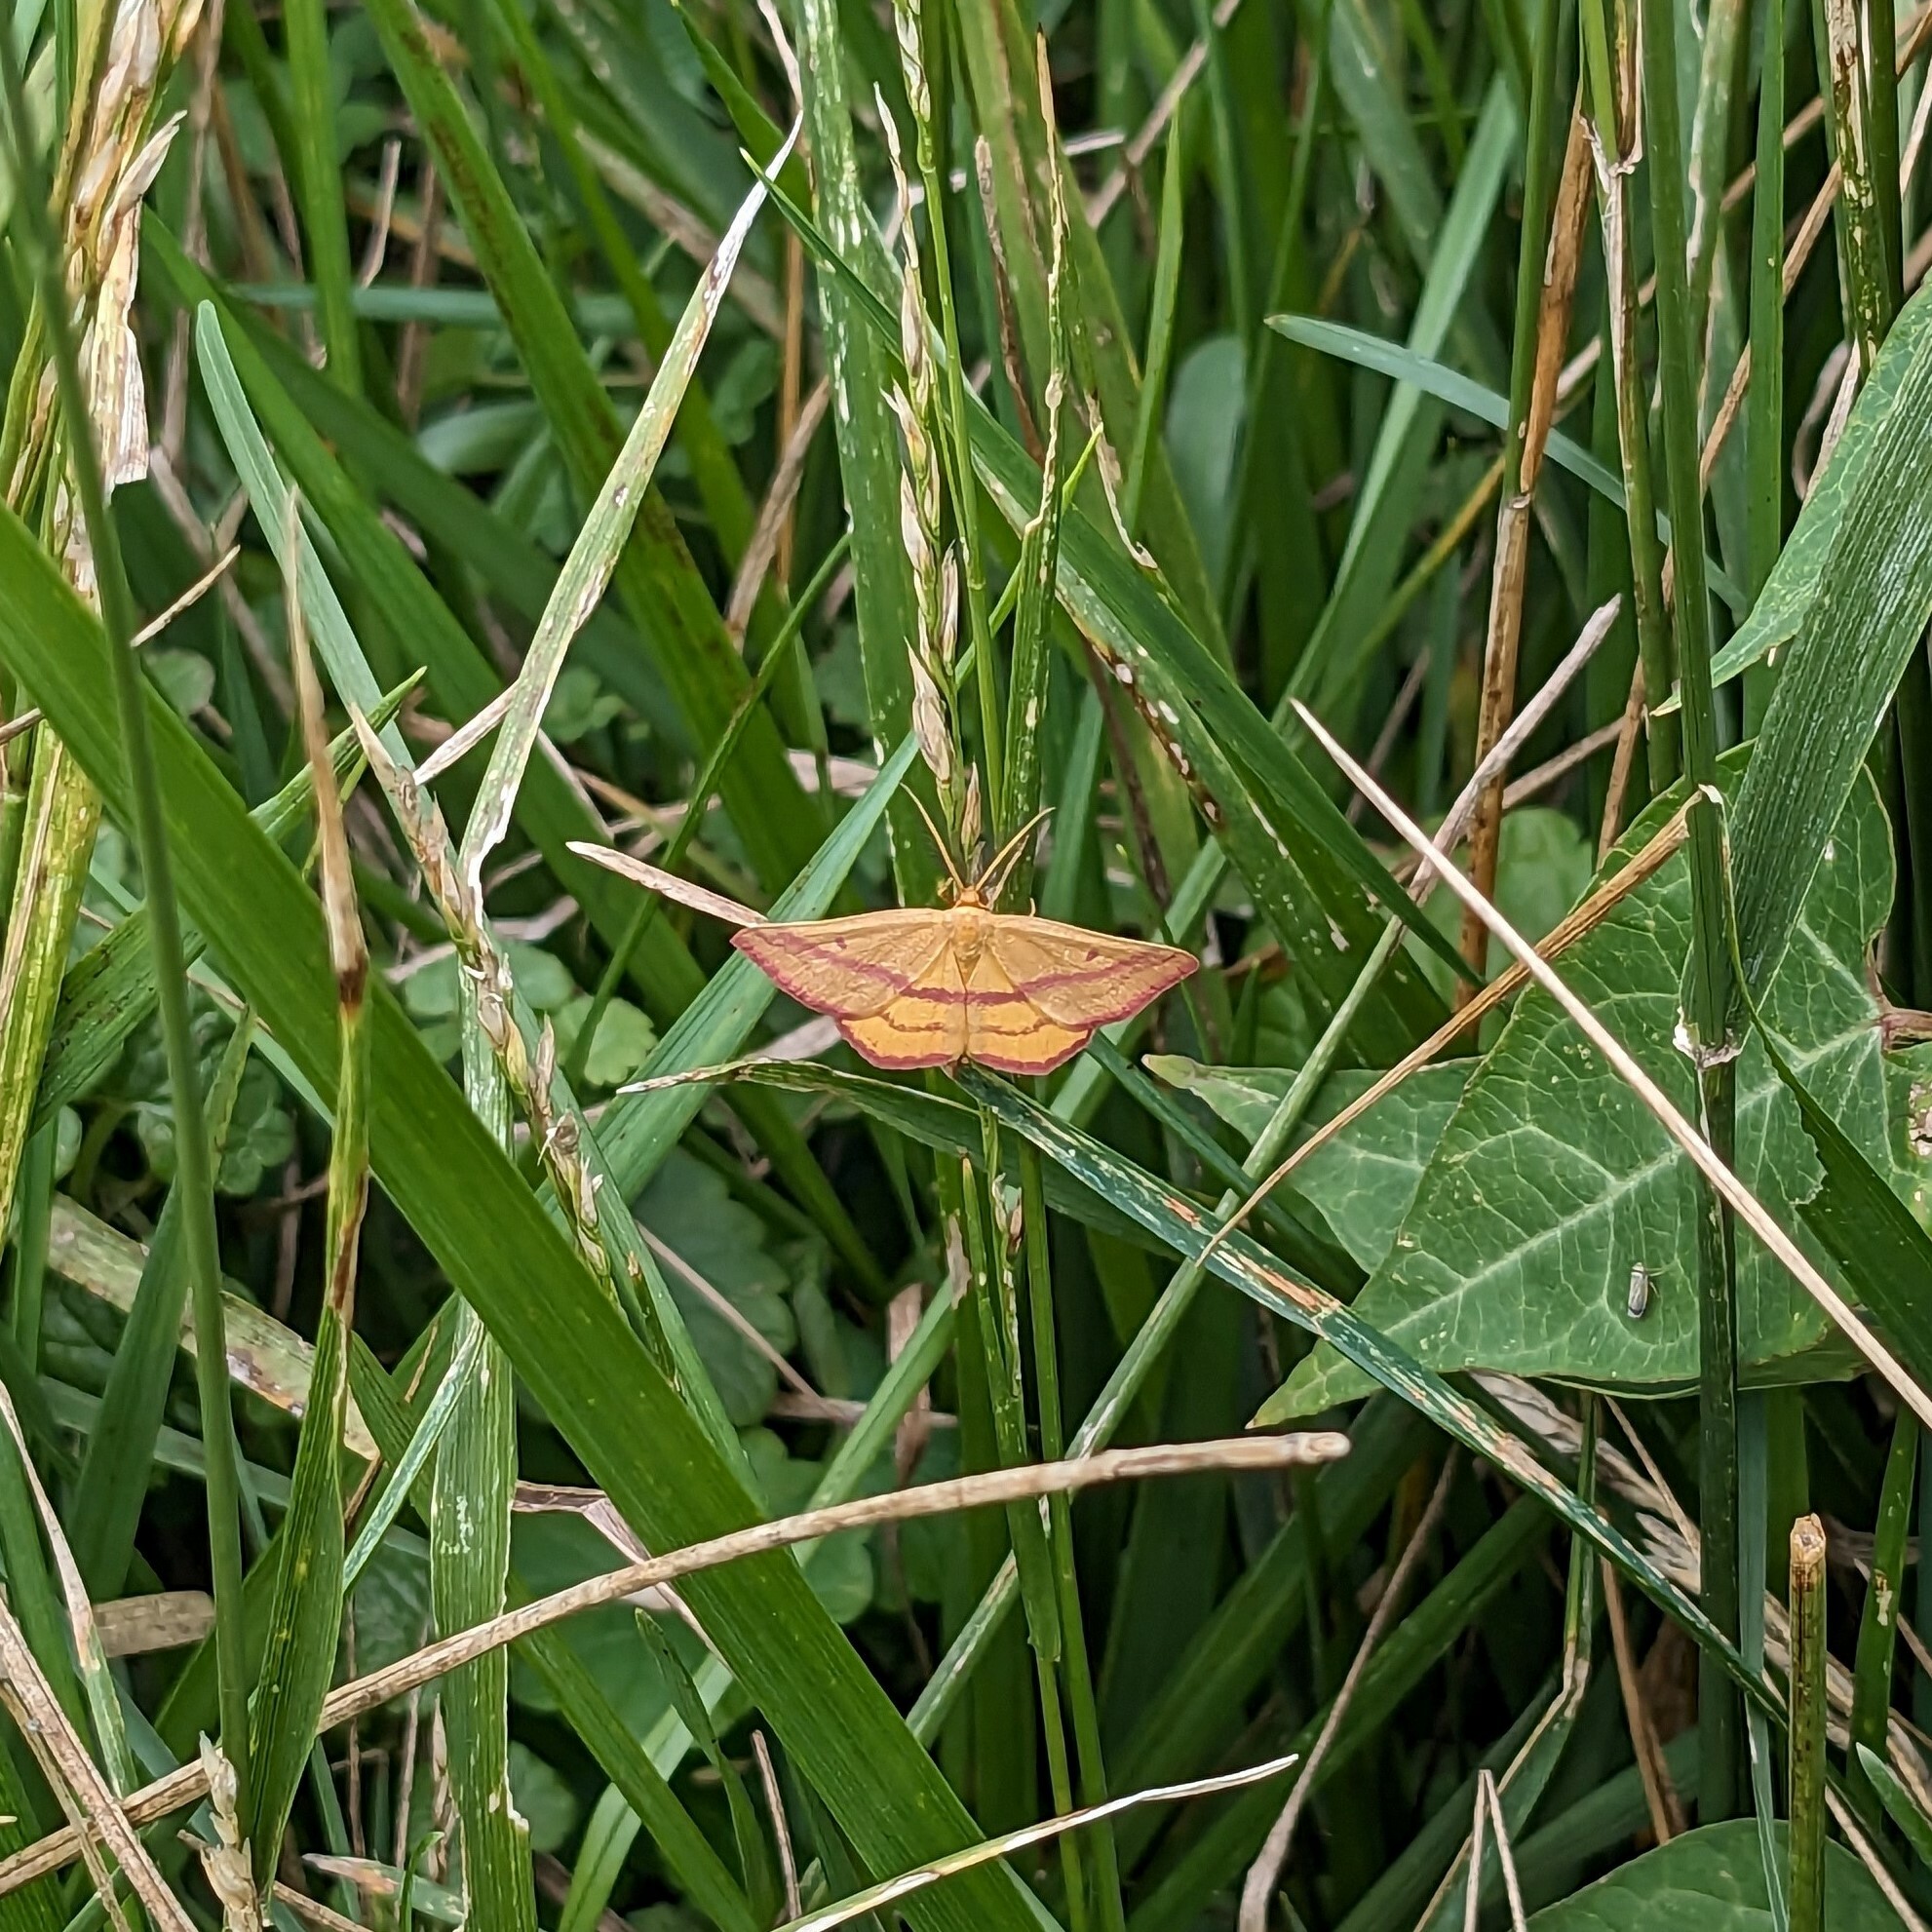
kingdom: Animalia
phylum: Arthropoda
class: Insecta
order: Lepidoptera
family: Geometridae
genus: Haematopis
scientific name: Haematopis grataria
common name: Chickweed geometer
